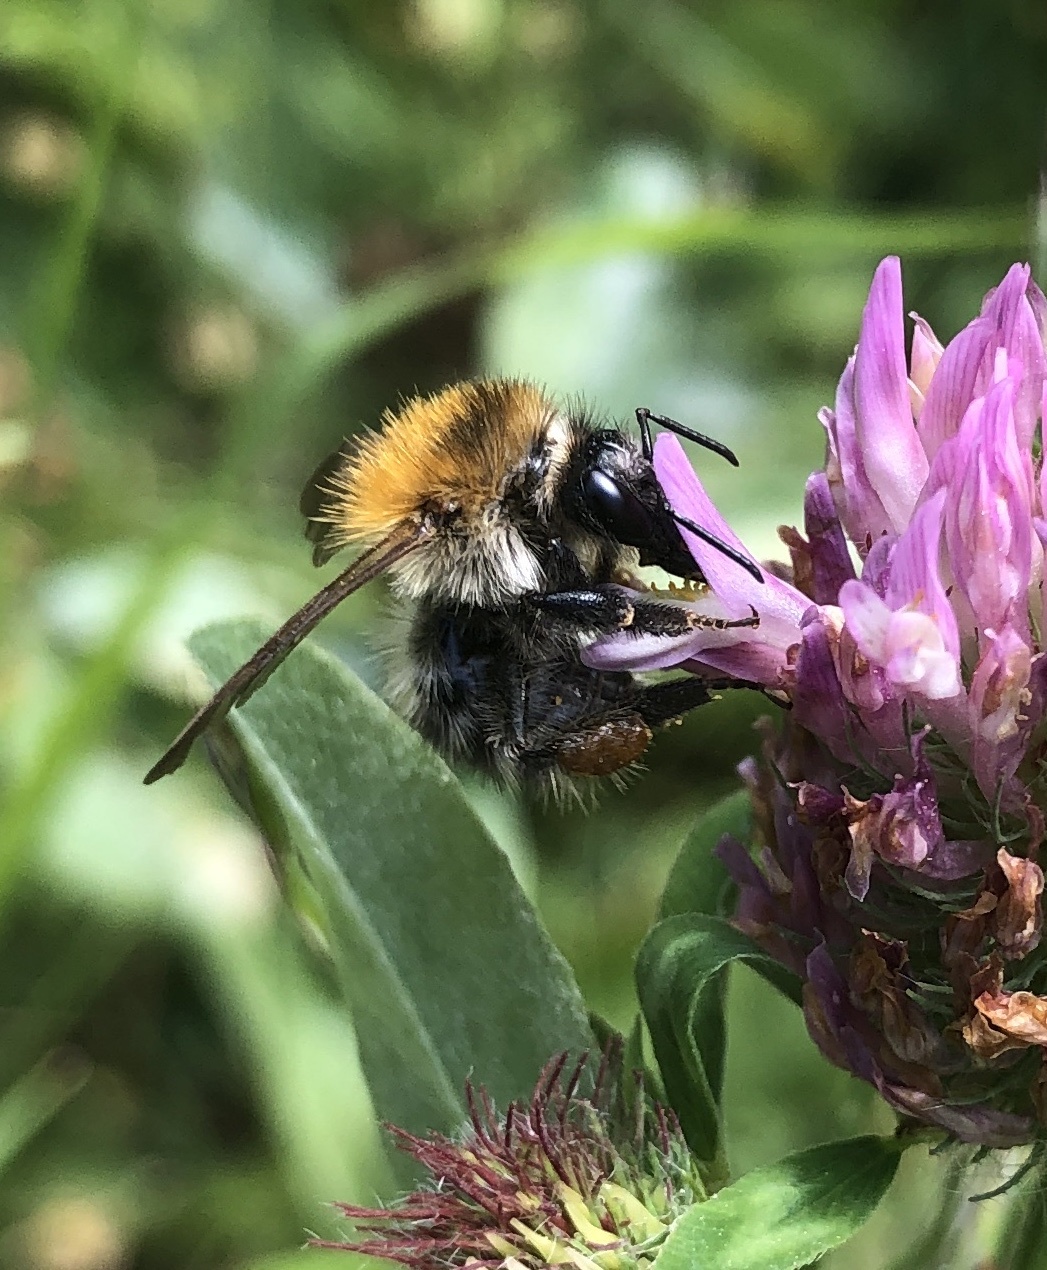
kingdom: Animalia
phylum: Arthropoda
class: Insecta
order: Hymenoptera
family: Apidae
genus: Bombus
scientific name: Bombus pascuorum
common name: Common carder bee
